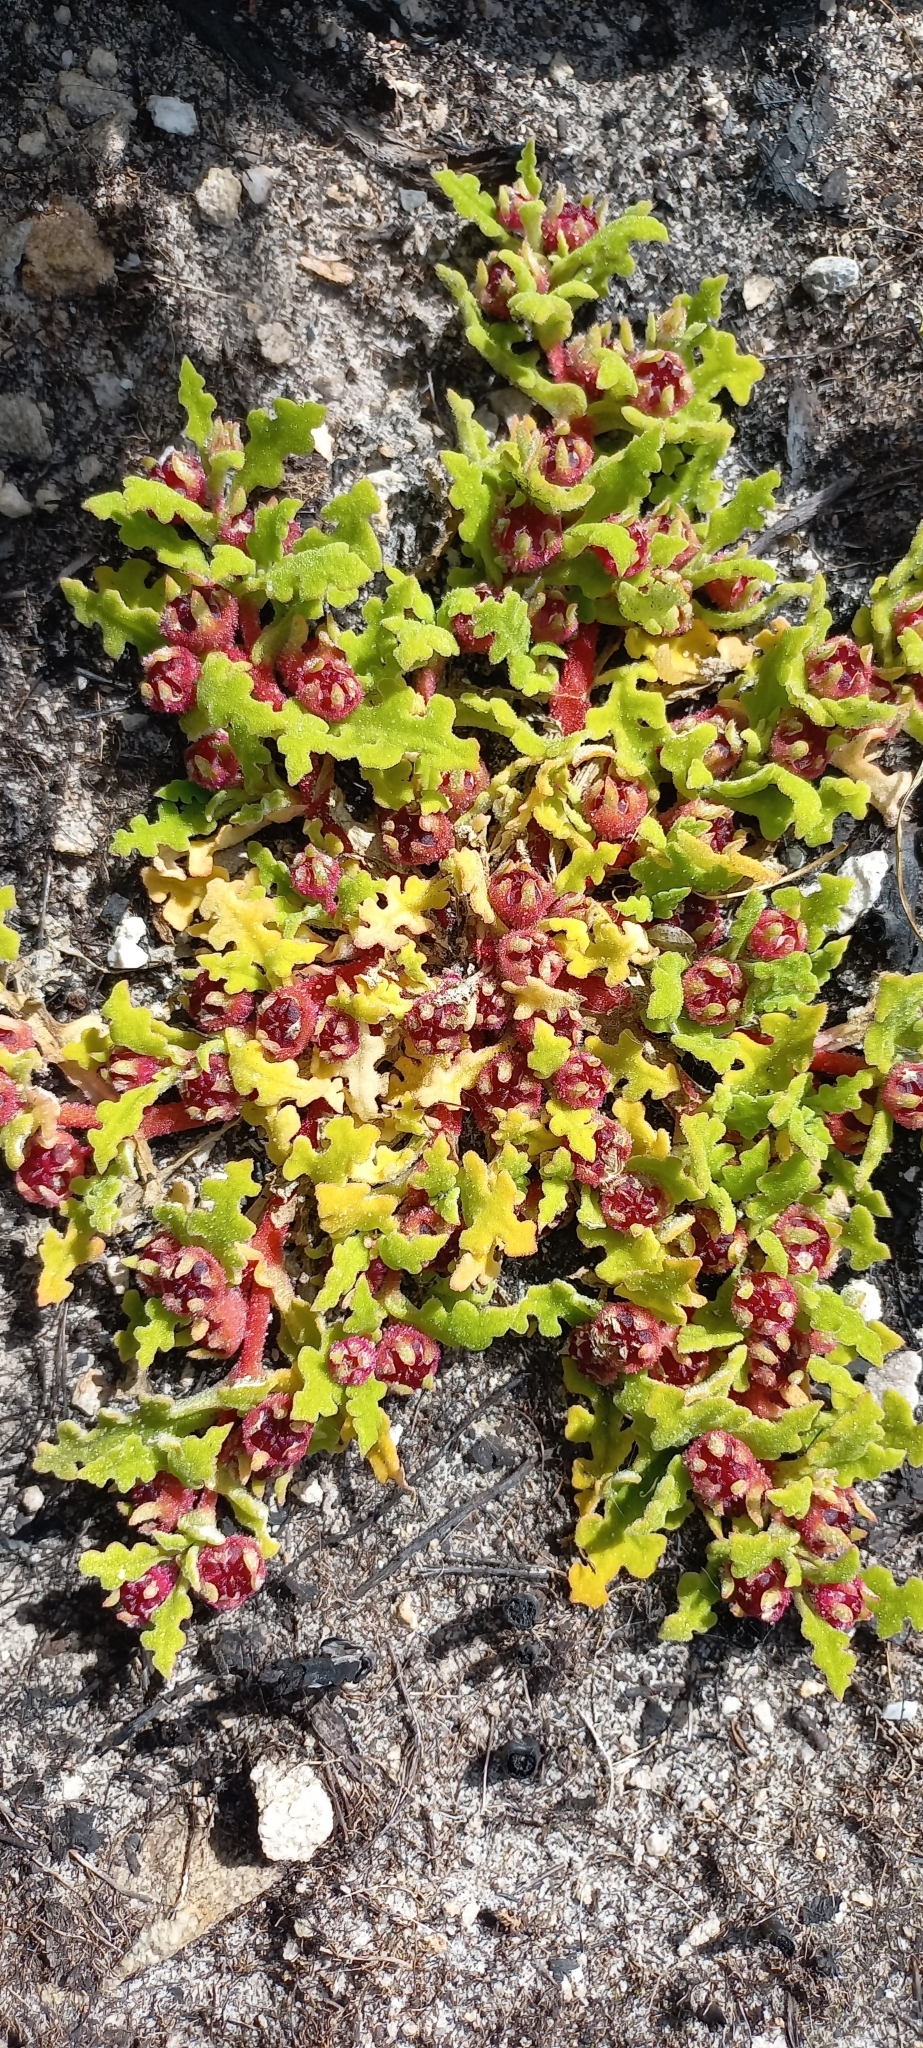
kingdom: Plantae
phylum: Tracheophyta
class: Magnoliopsida
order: Caryophyllales
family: Aizoaceae
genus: Cleretum
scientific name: Cleretum herrei
